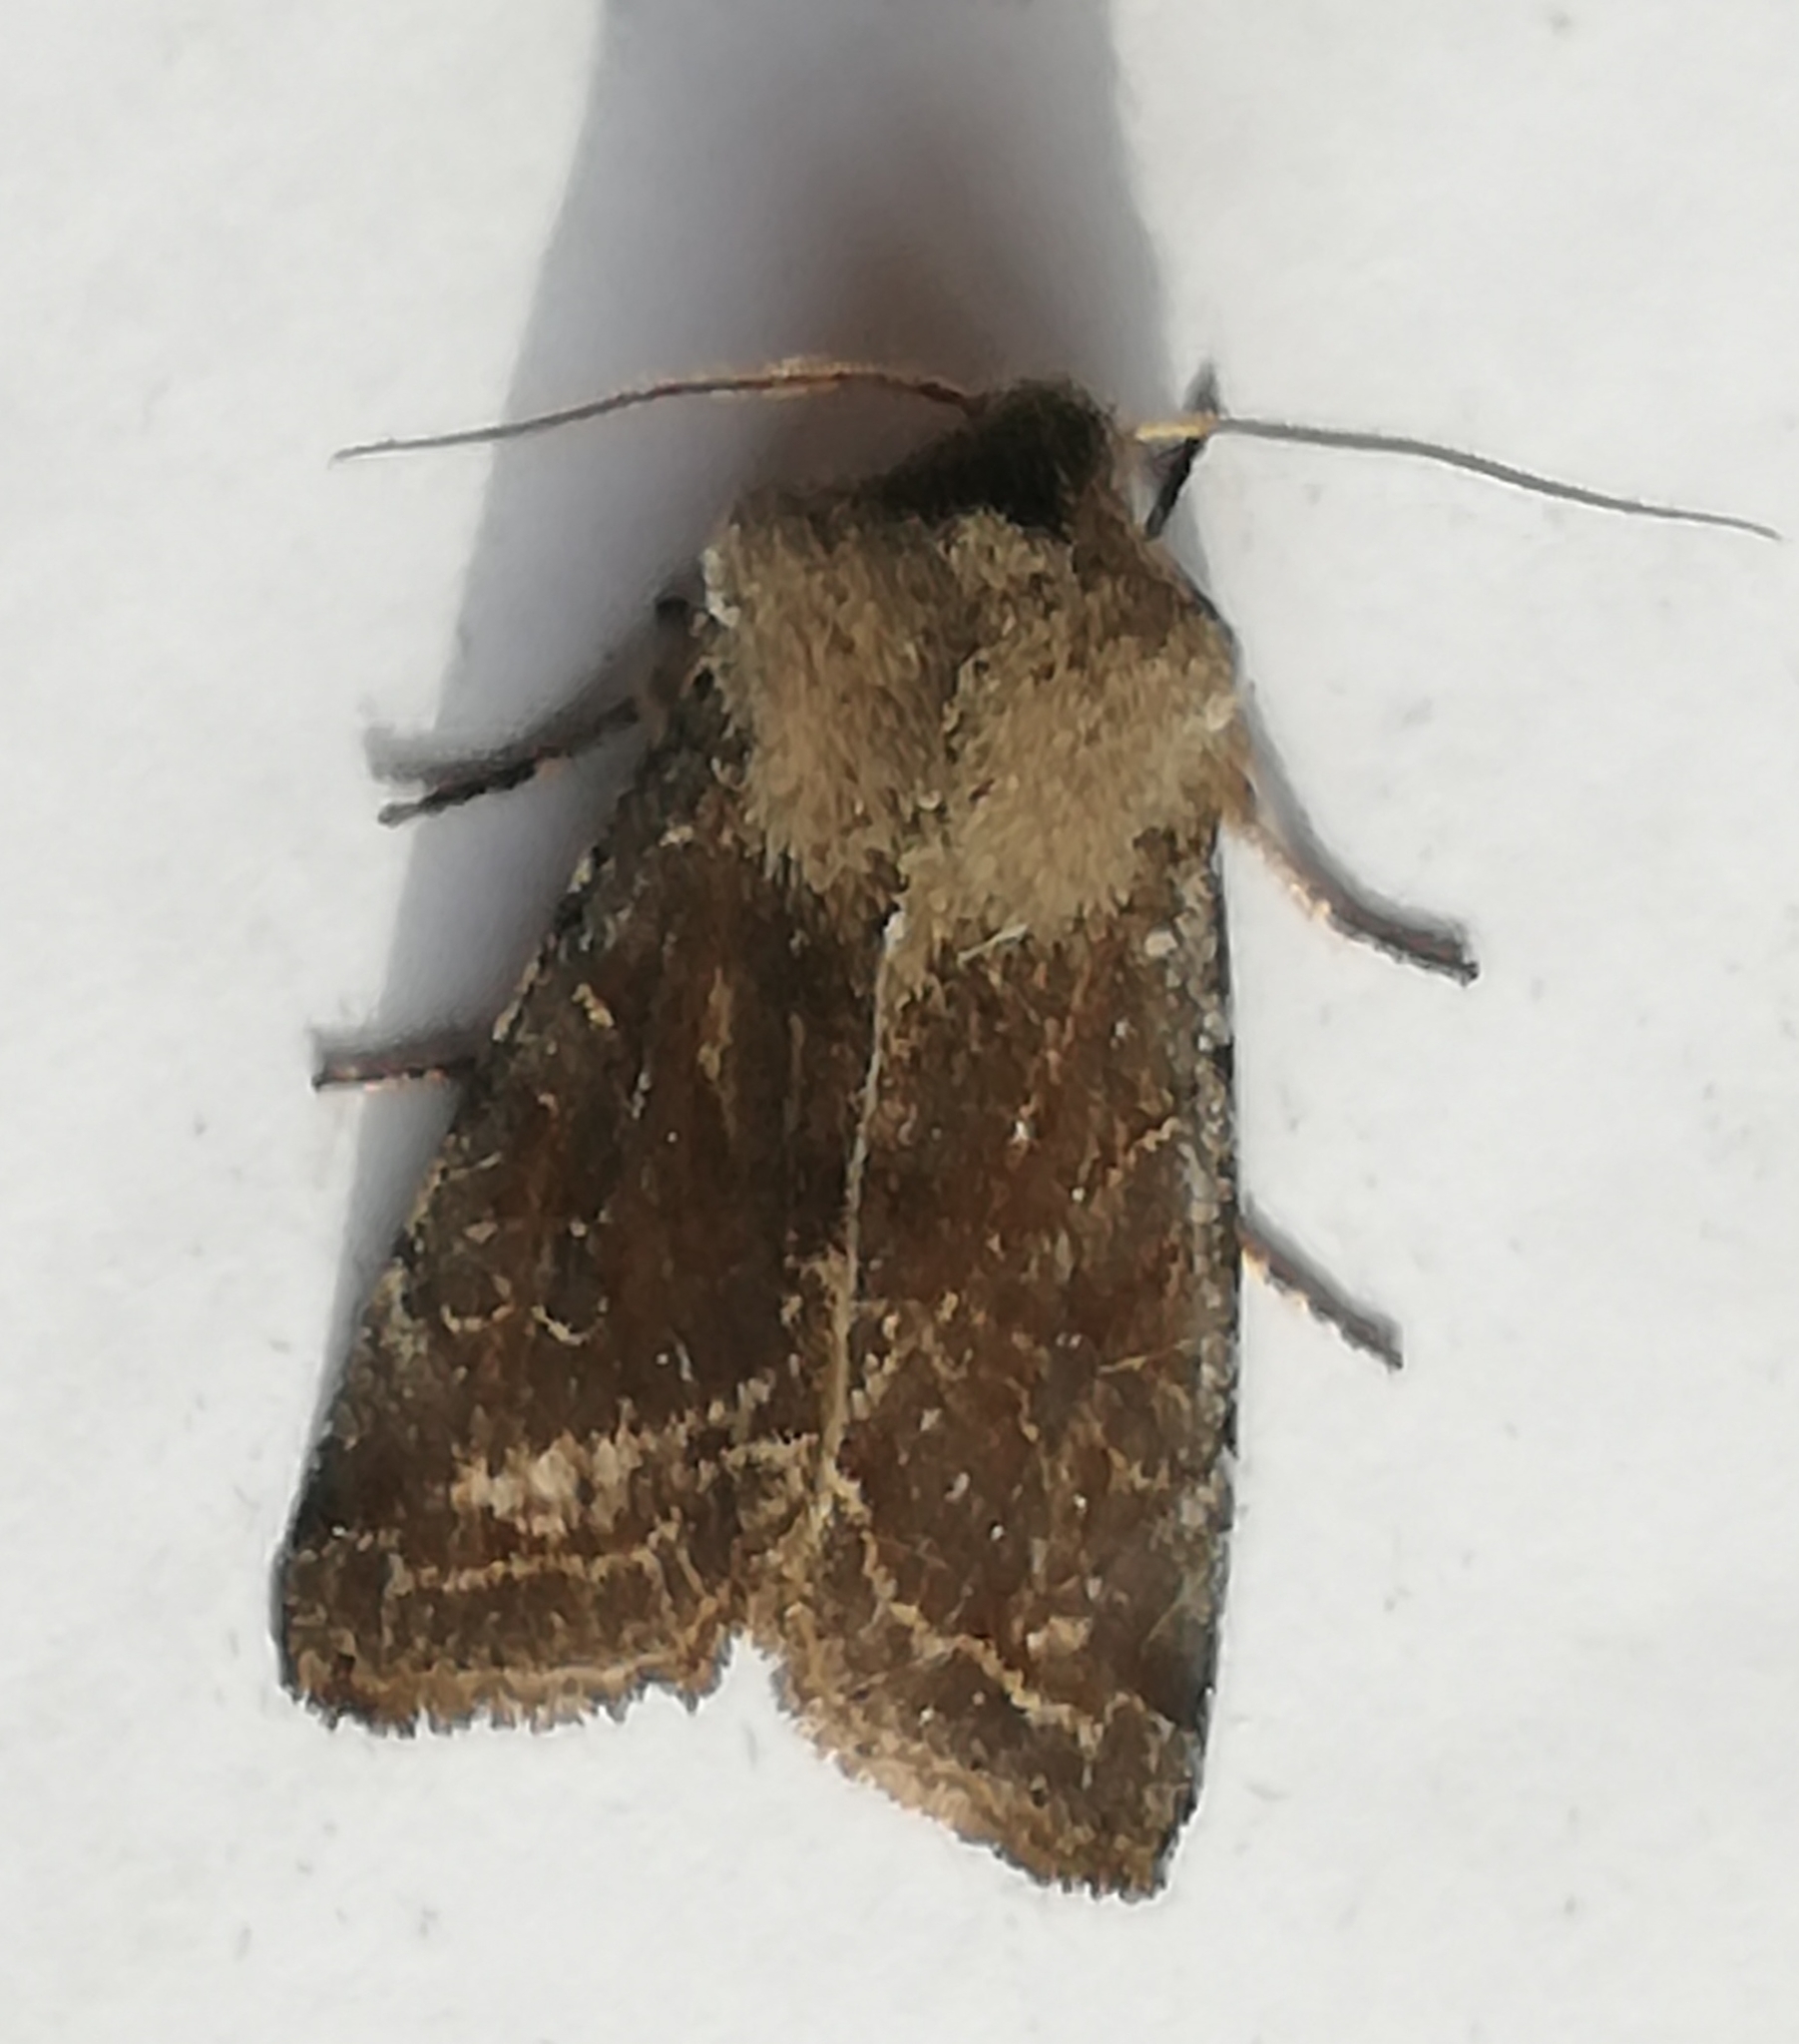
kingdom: Animalia
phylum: Arthropoda
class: Insecta
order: Lepidoptera
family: Noctuidae
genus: Orthosia
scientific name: Orthosia incerta
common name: Clouded drab
